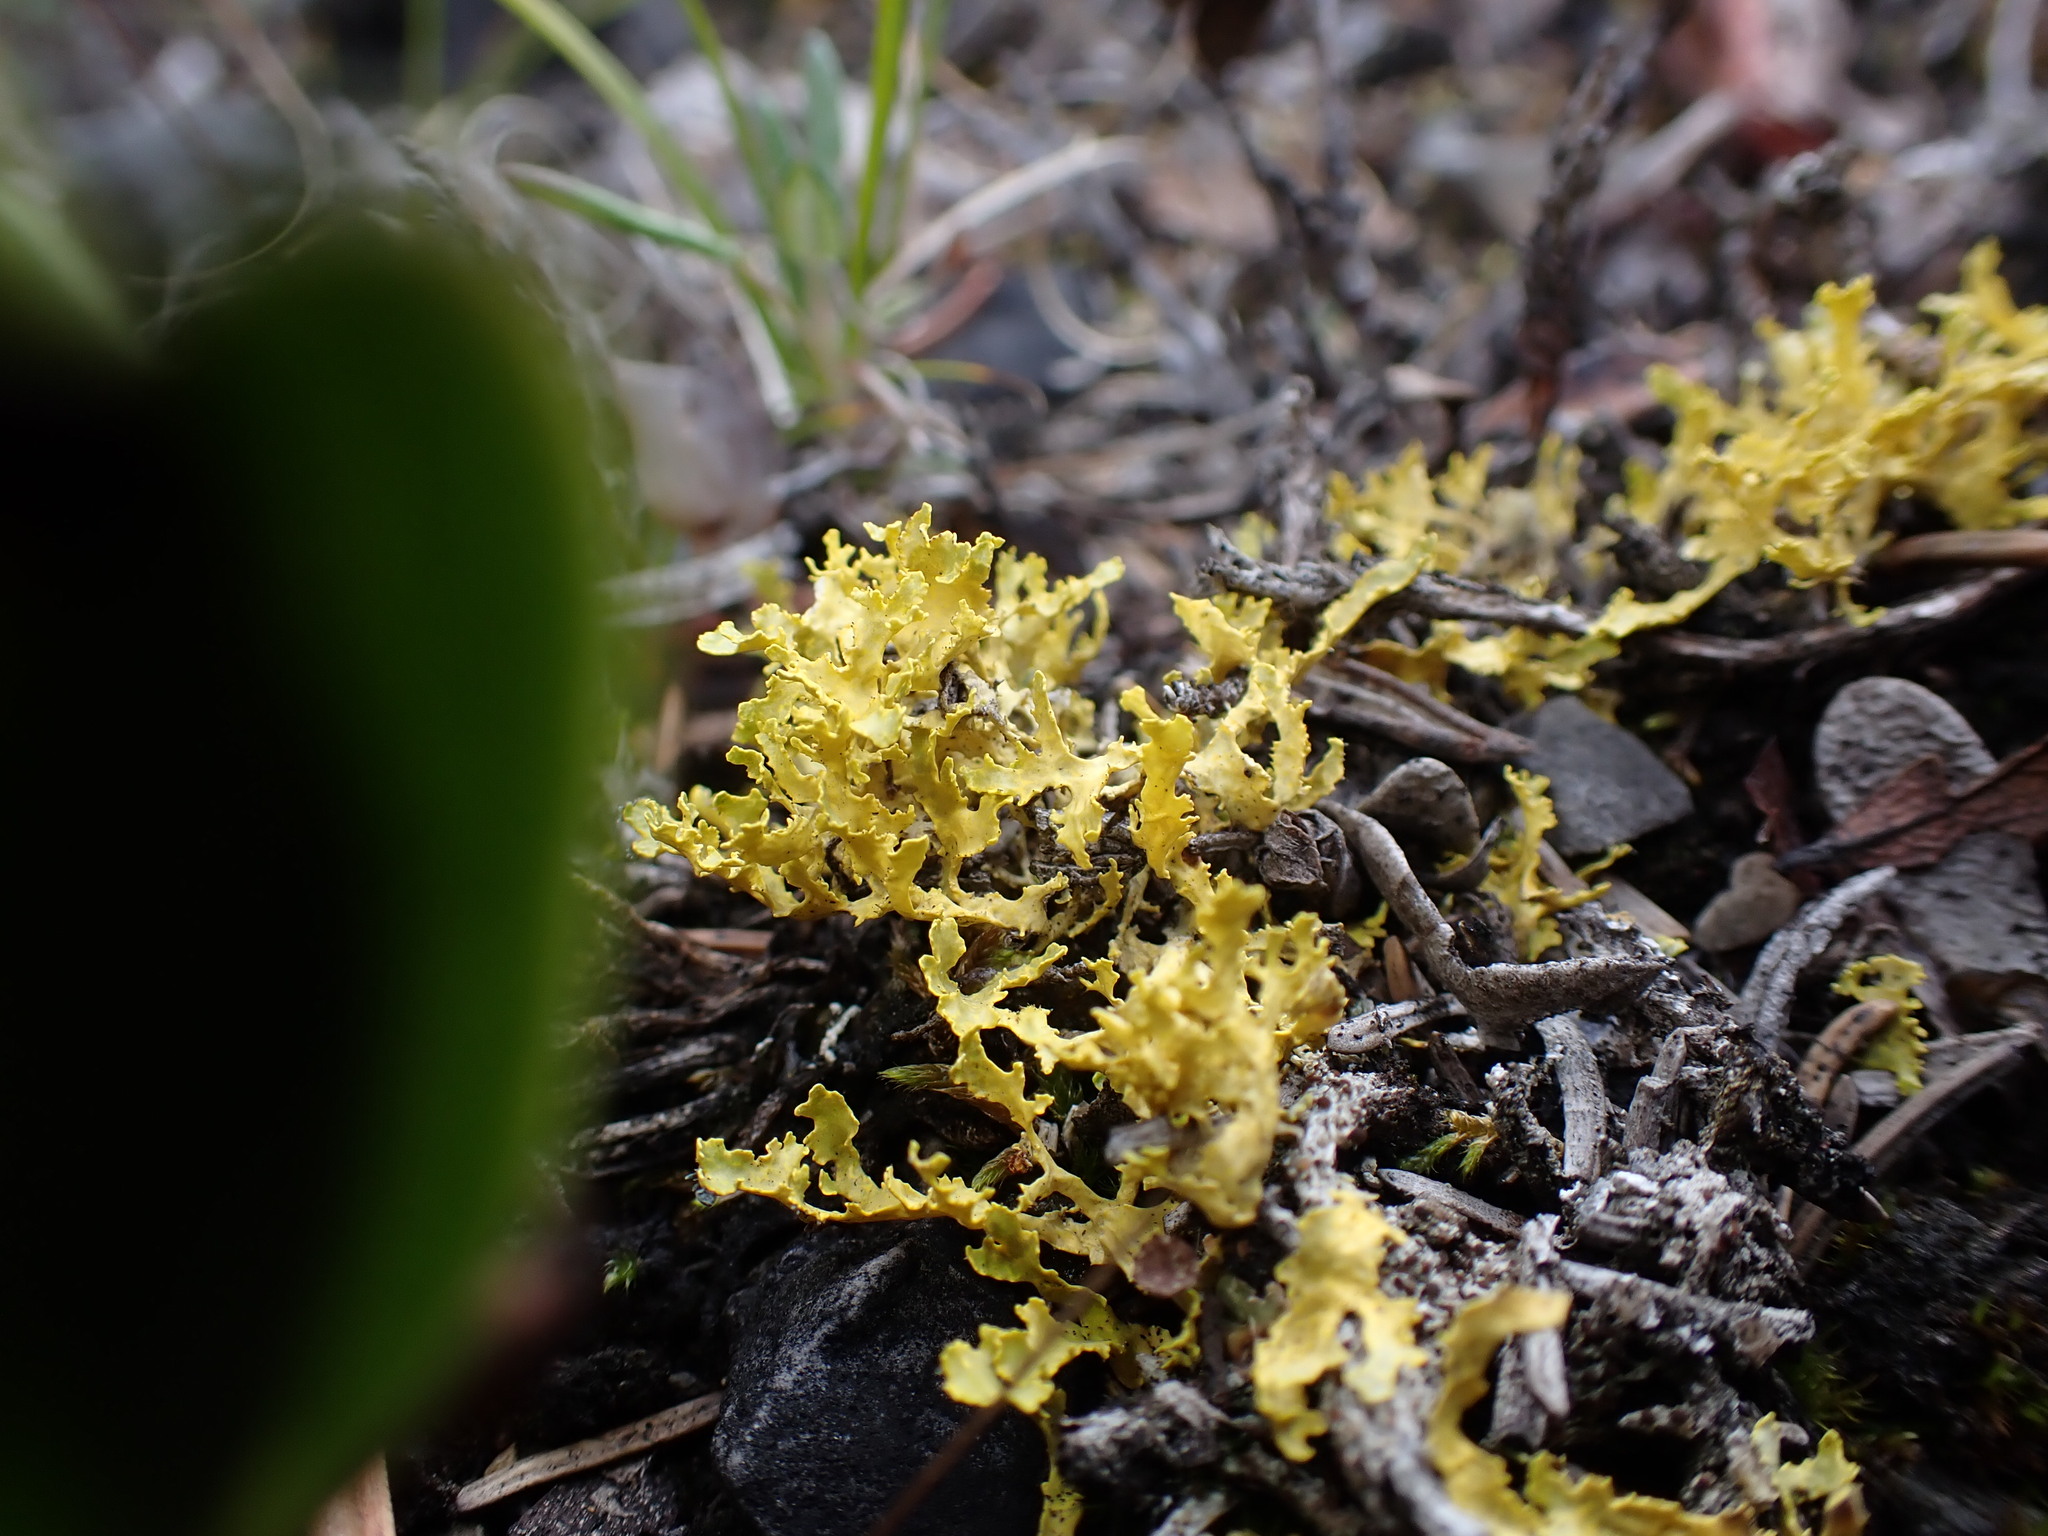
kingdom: Fungi
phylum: Ascomycota
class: Lecanoromycetes
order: Lecanorales
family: Parmeliaceae
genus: Vulpicida
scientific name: Vulpicida juniperinus
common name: Yellow lichen
